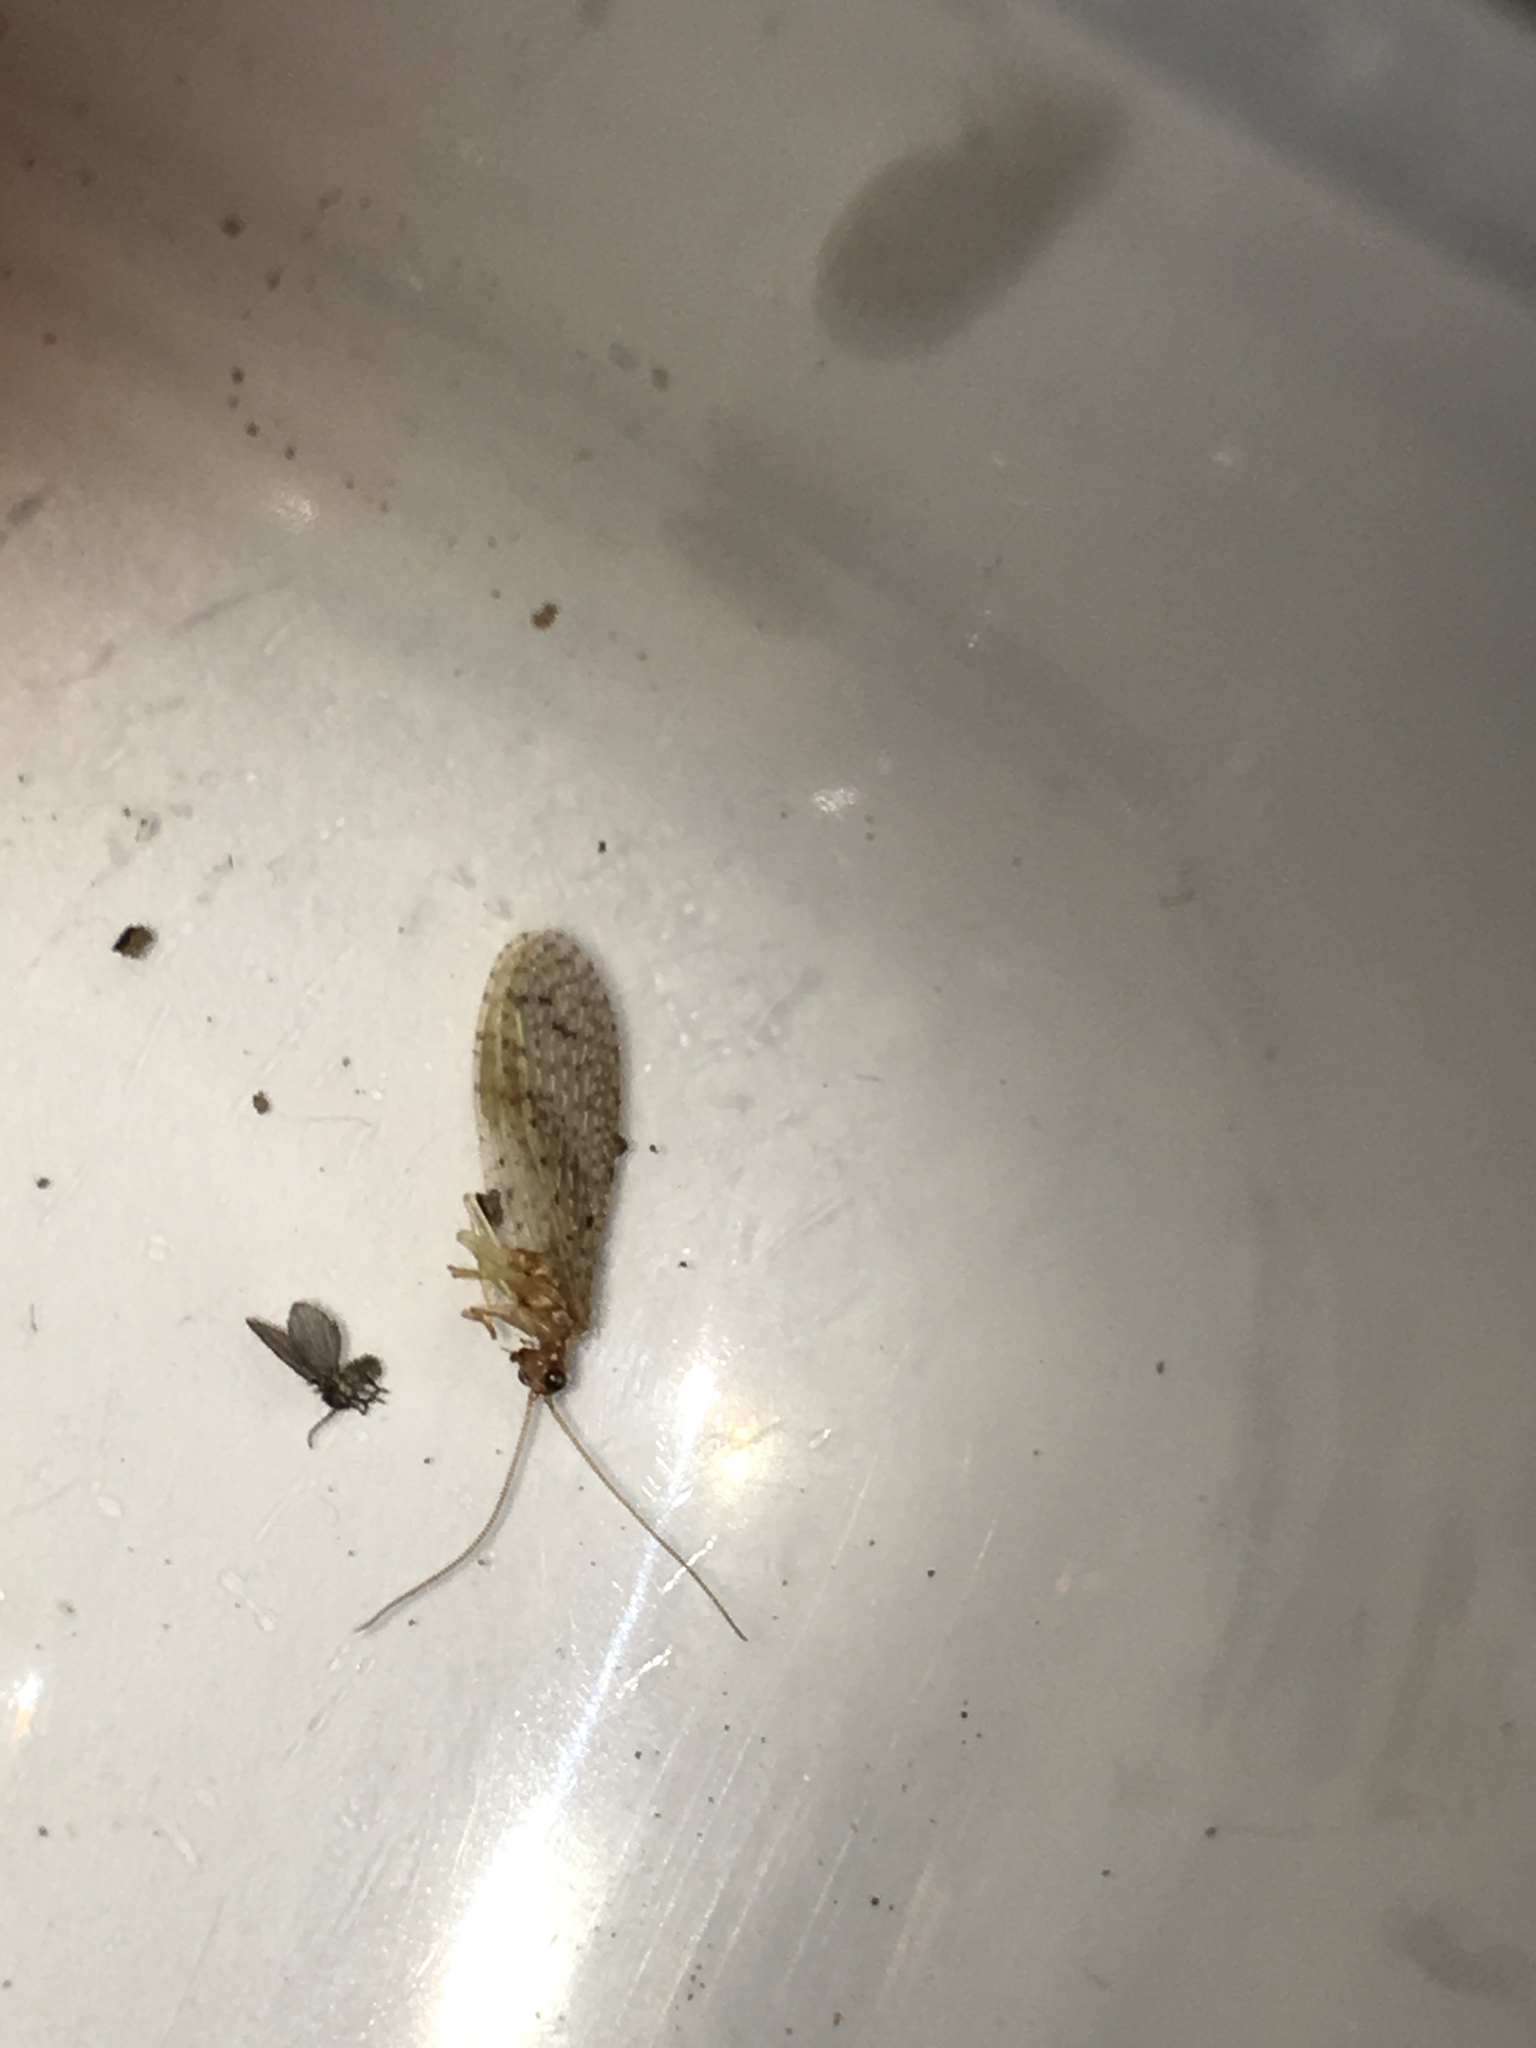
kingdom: Animalia
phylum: Arthropoda
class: Insecta
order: Neuroptera
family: Hemerobiidae
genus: Micromus
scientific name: Micromus tasmaniae
